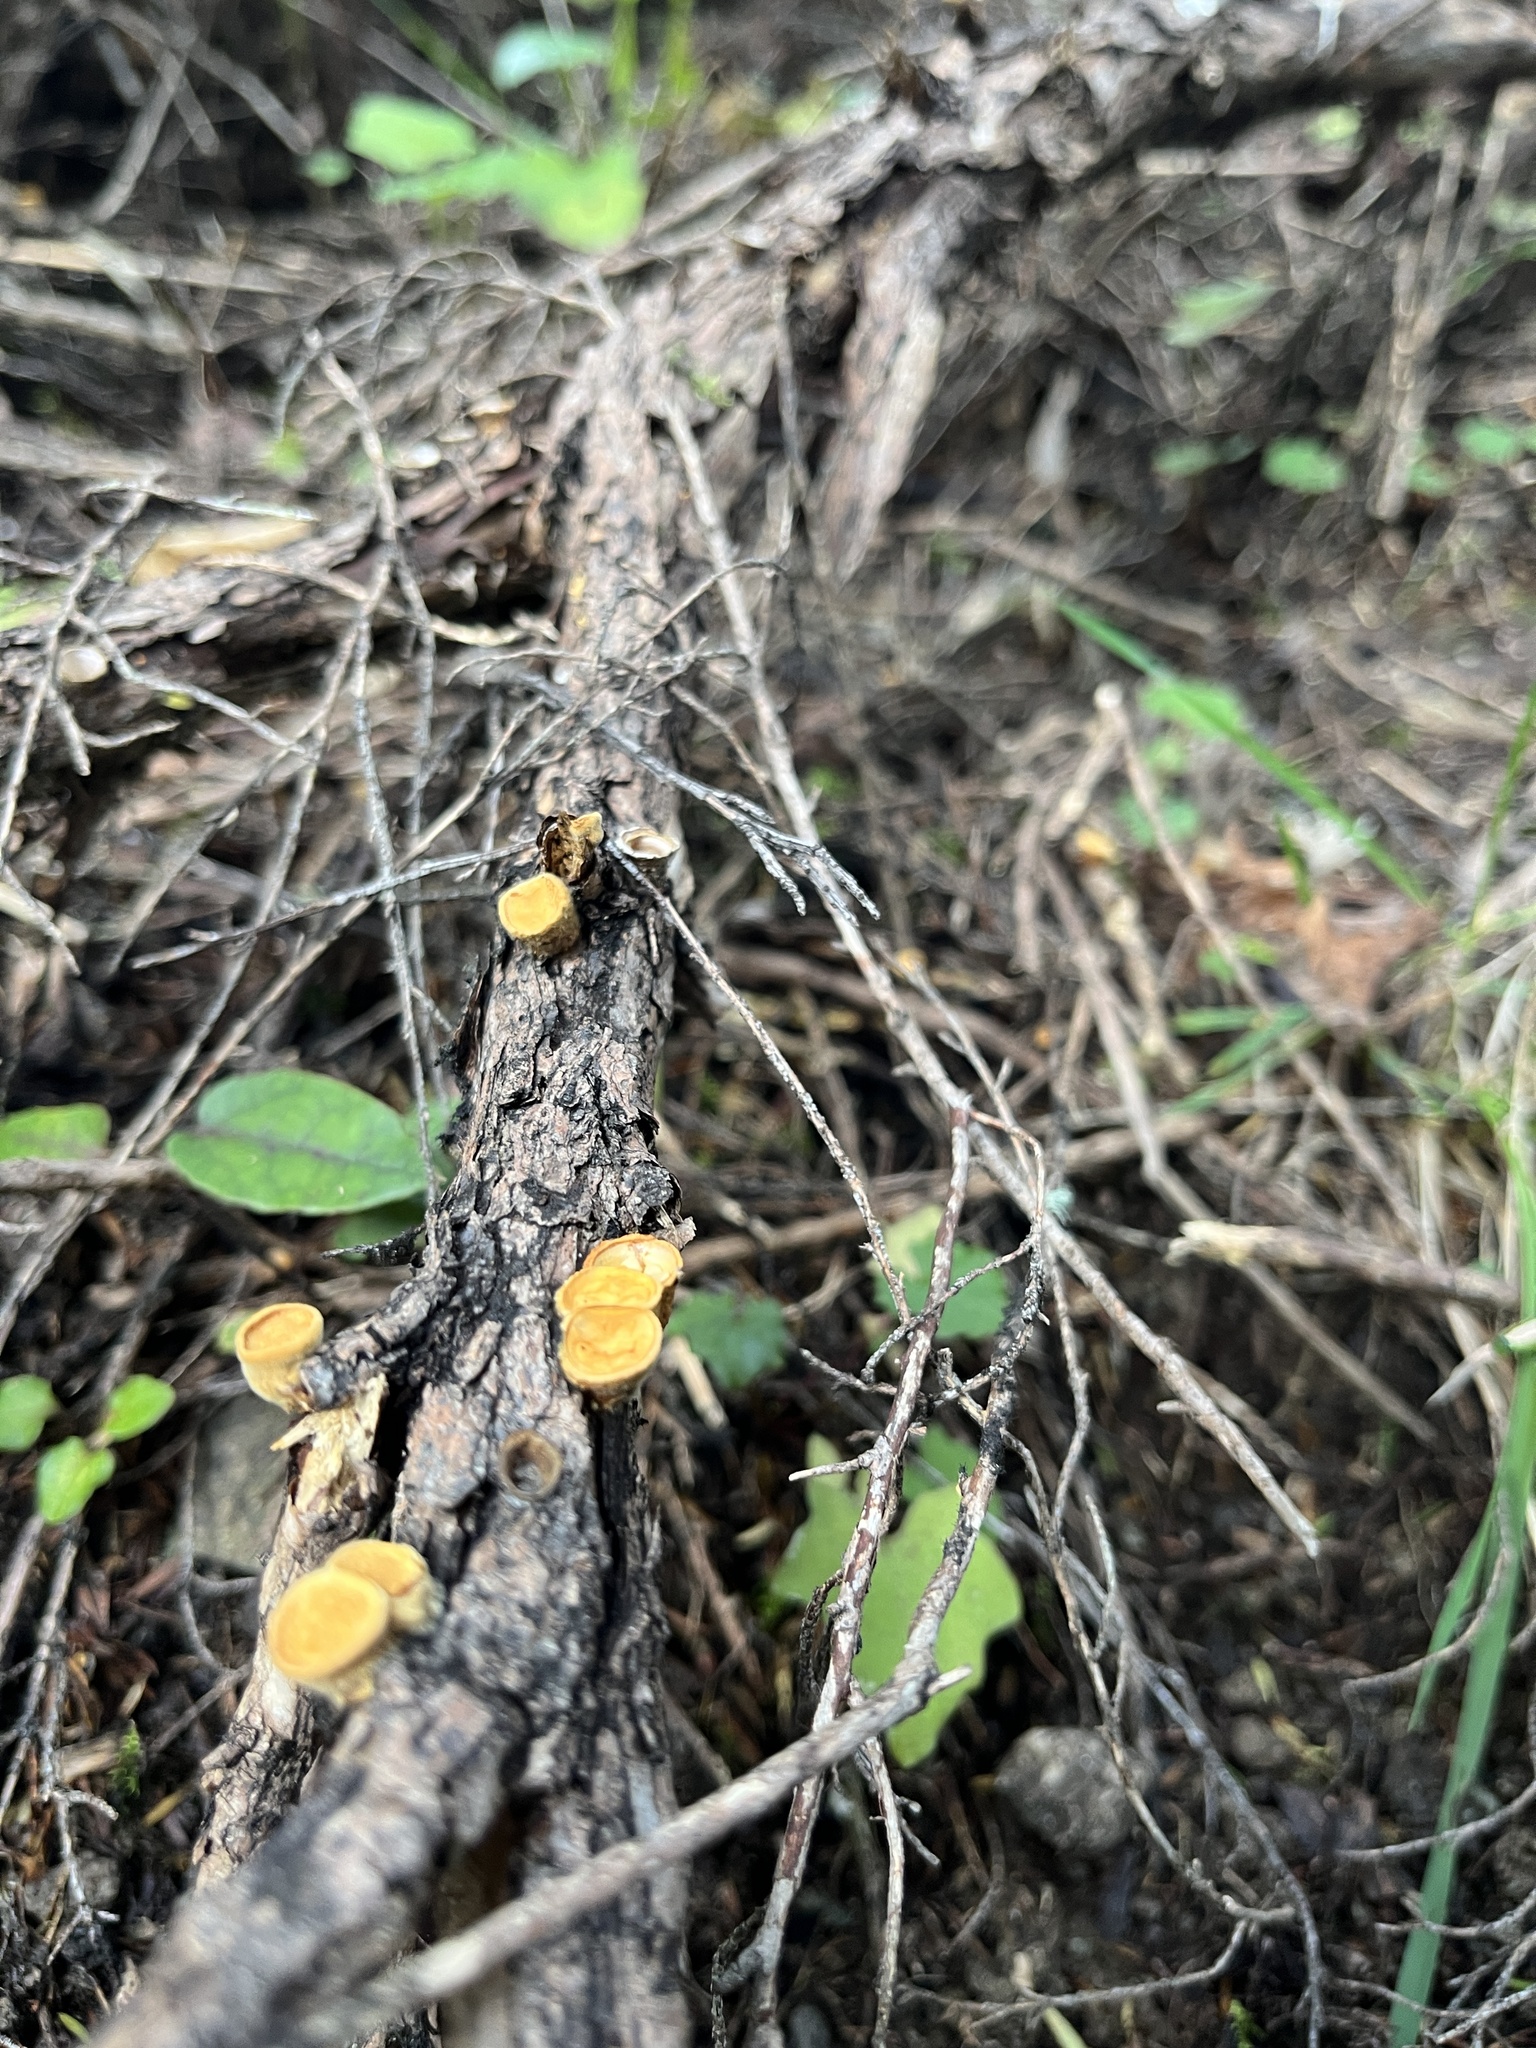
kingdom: Fungi
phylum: Basidiomycota
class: Agaricomycetes
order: Agaricales
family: Nidulariaceae
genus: Crucibulum
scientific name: Crucibulum simile
